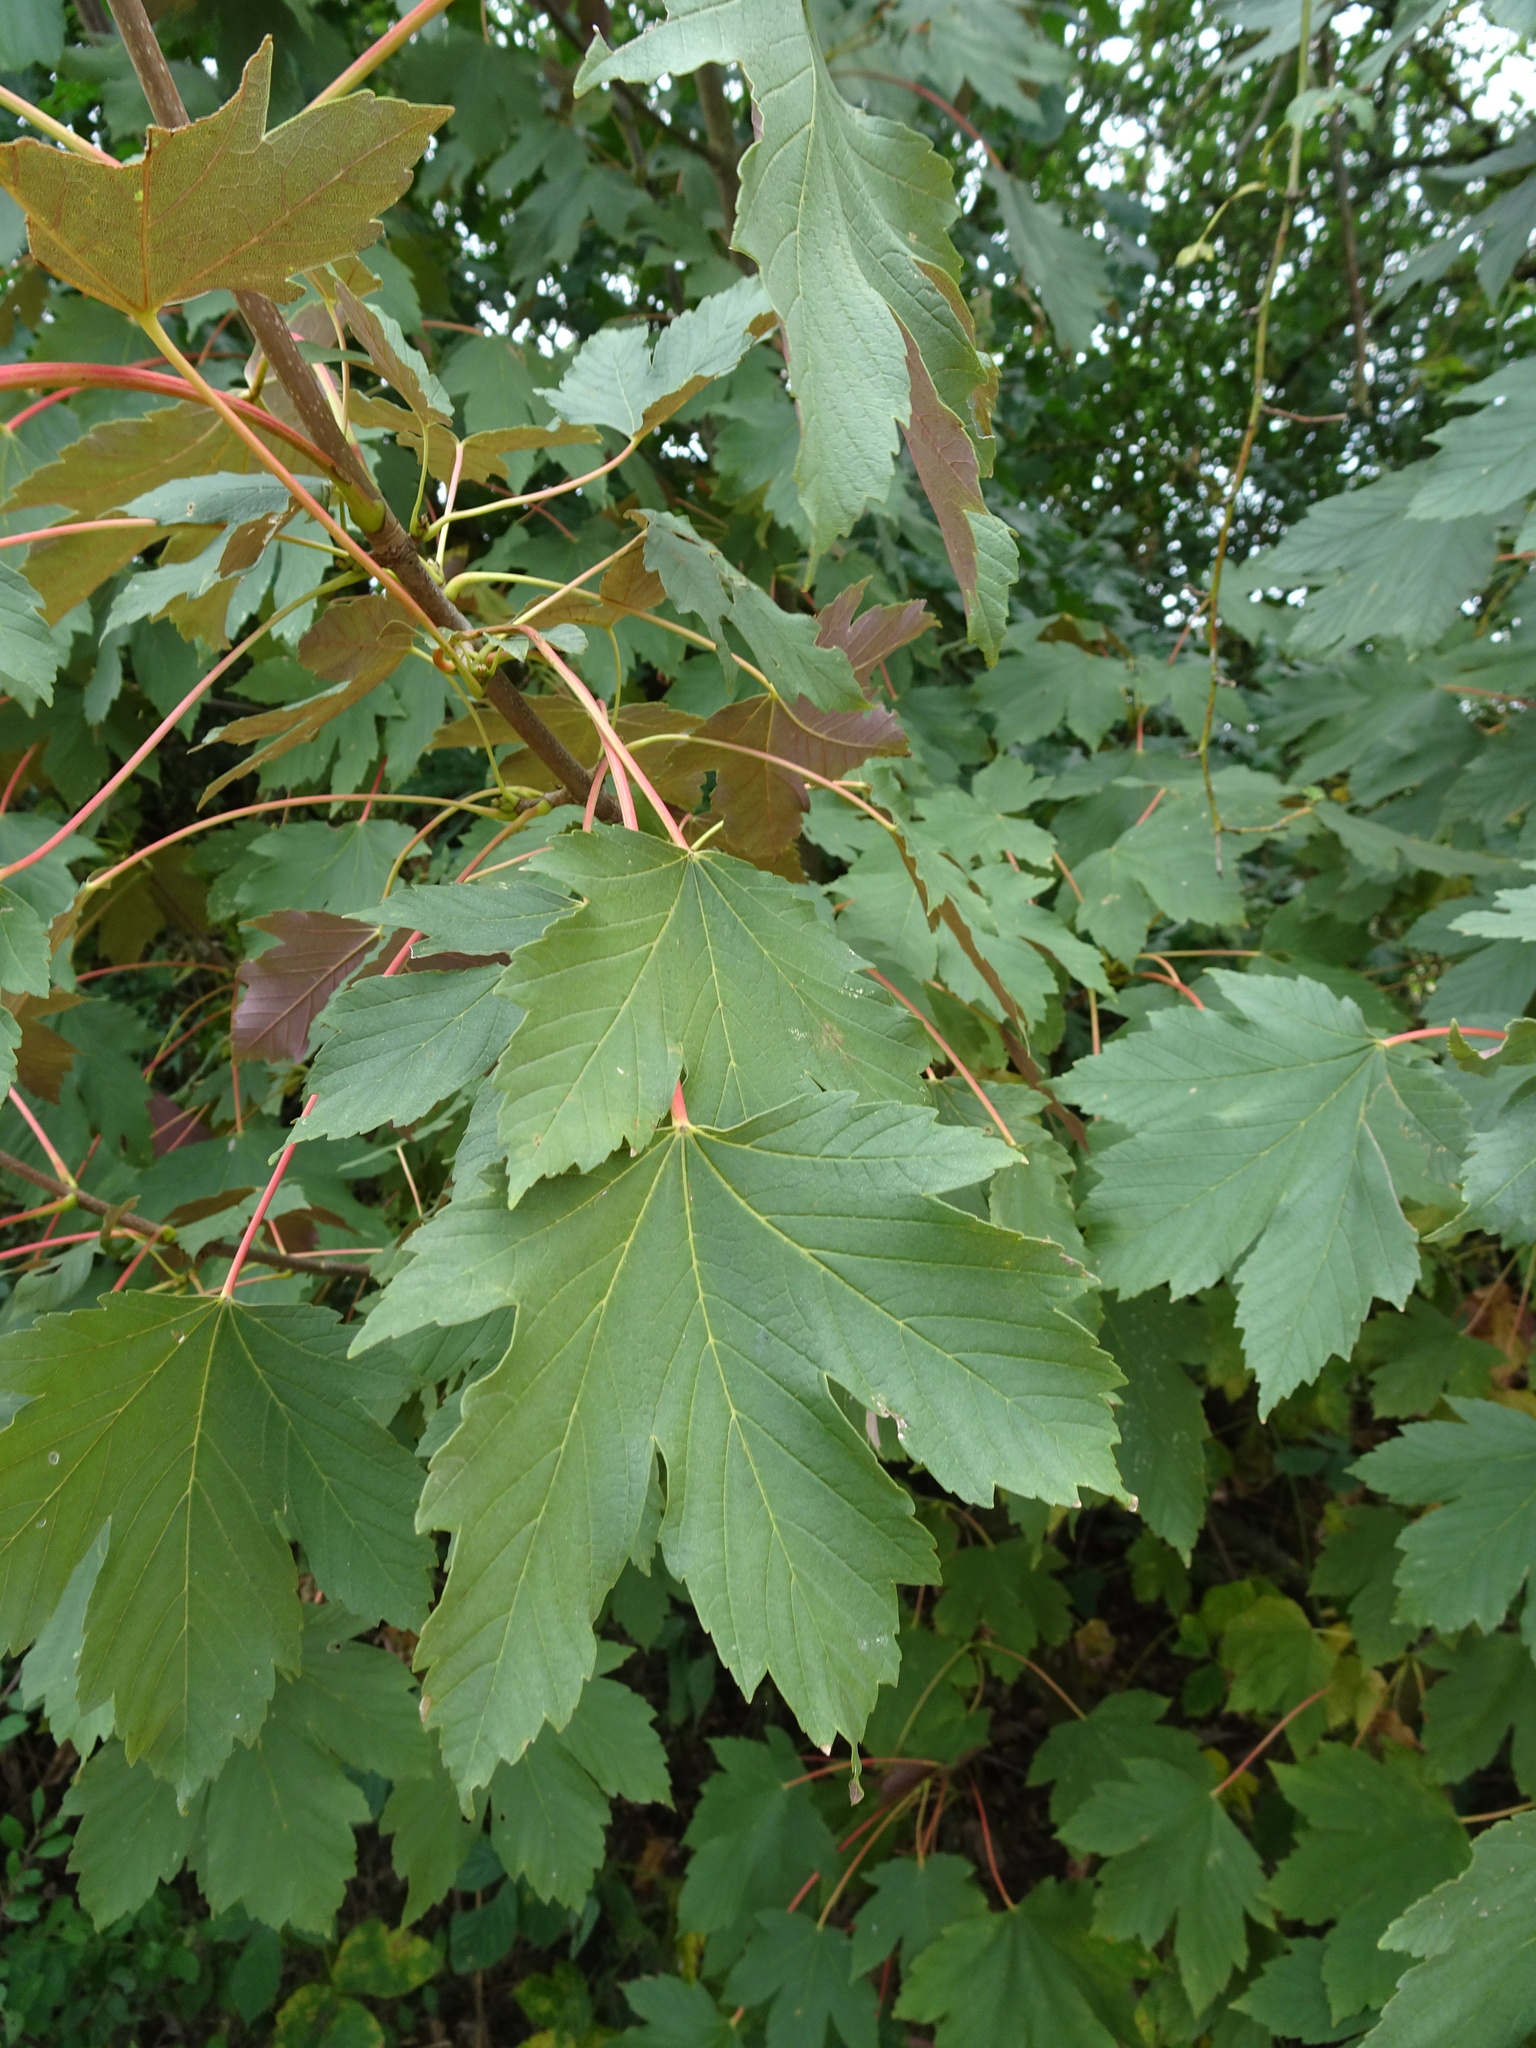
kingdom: Plantae
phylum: Tracheophyta
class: Magnoliopsida
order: Sapindales
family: Sapindaceae
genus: Acer
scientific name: Acer pseudoplatanus
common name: Sycamore
